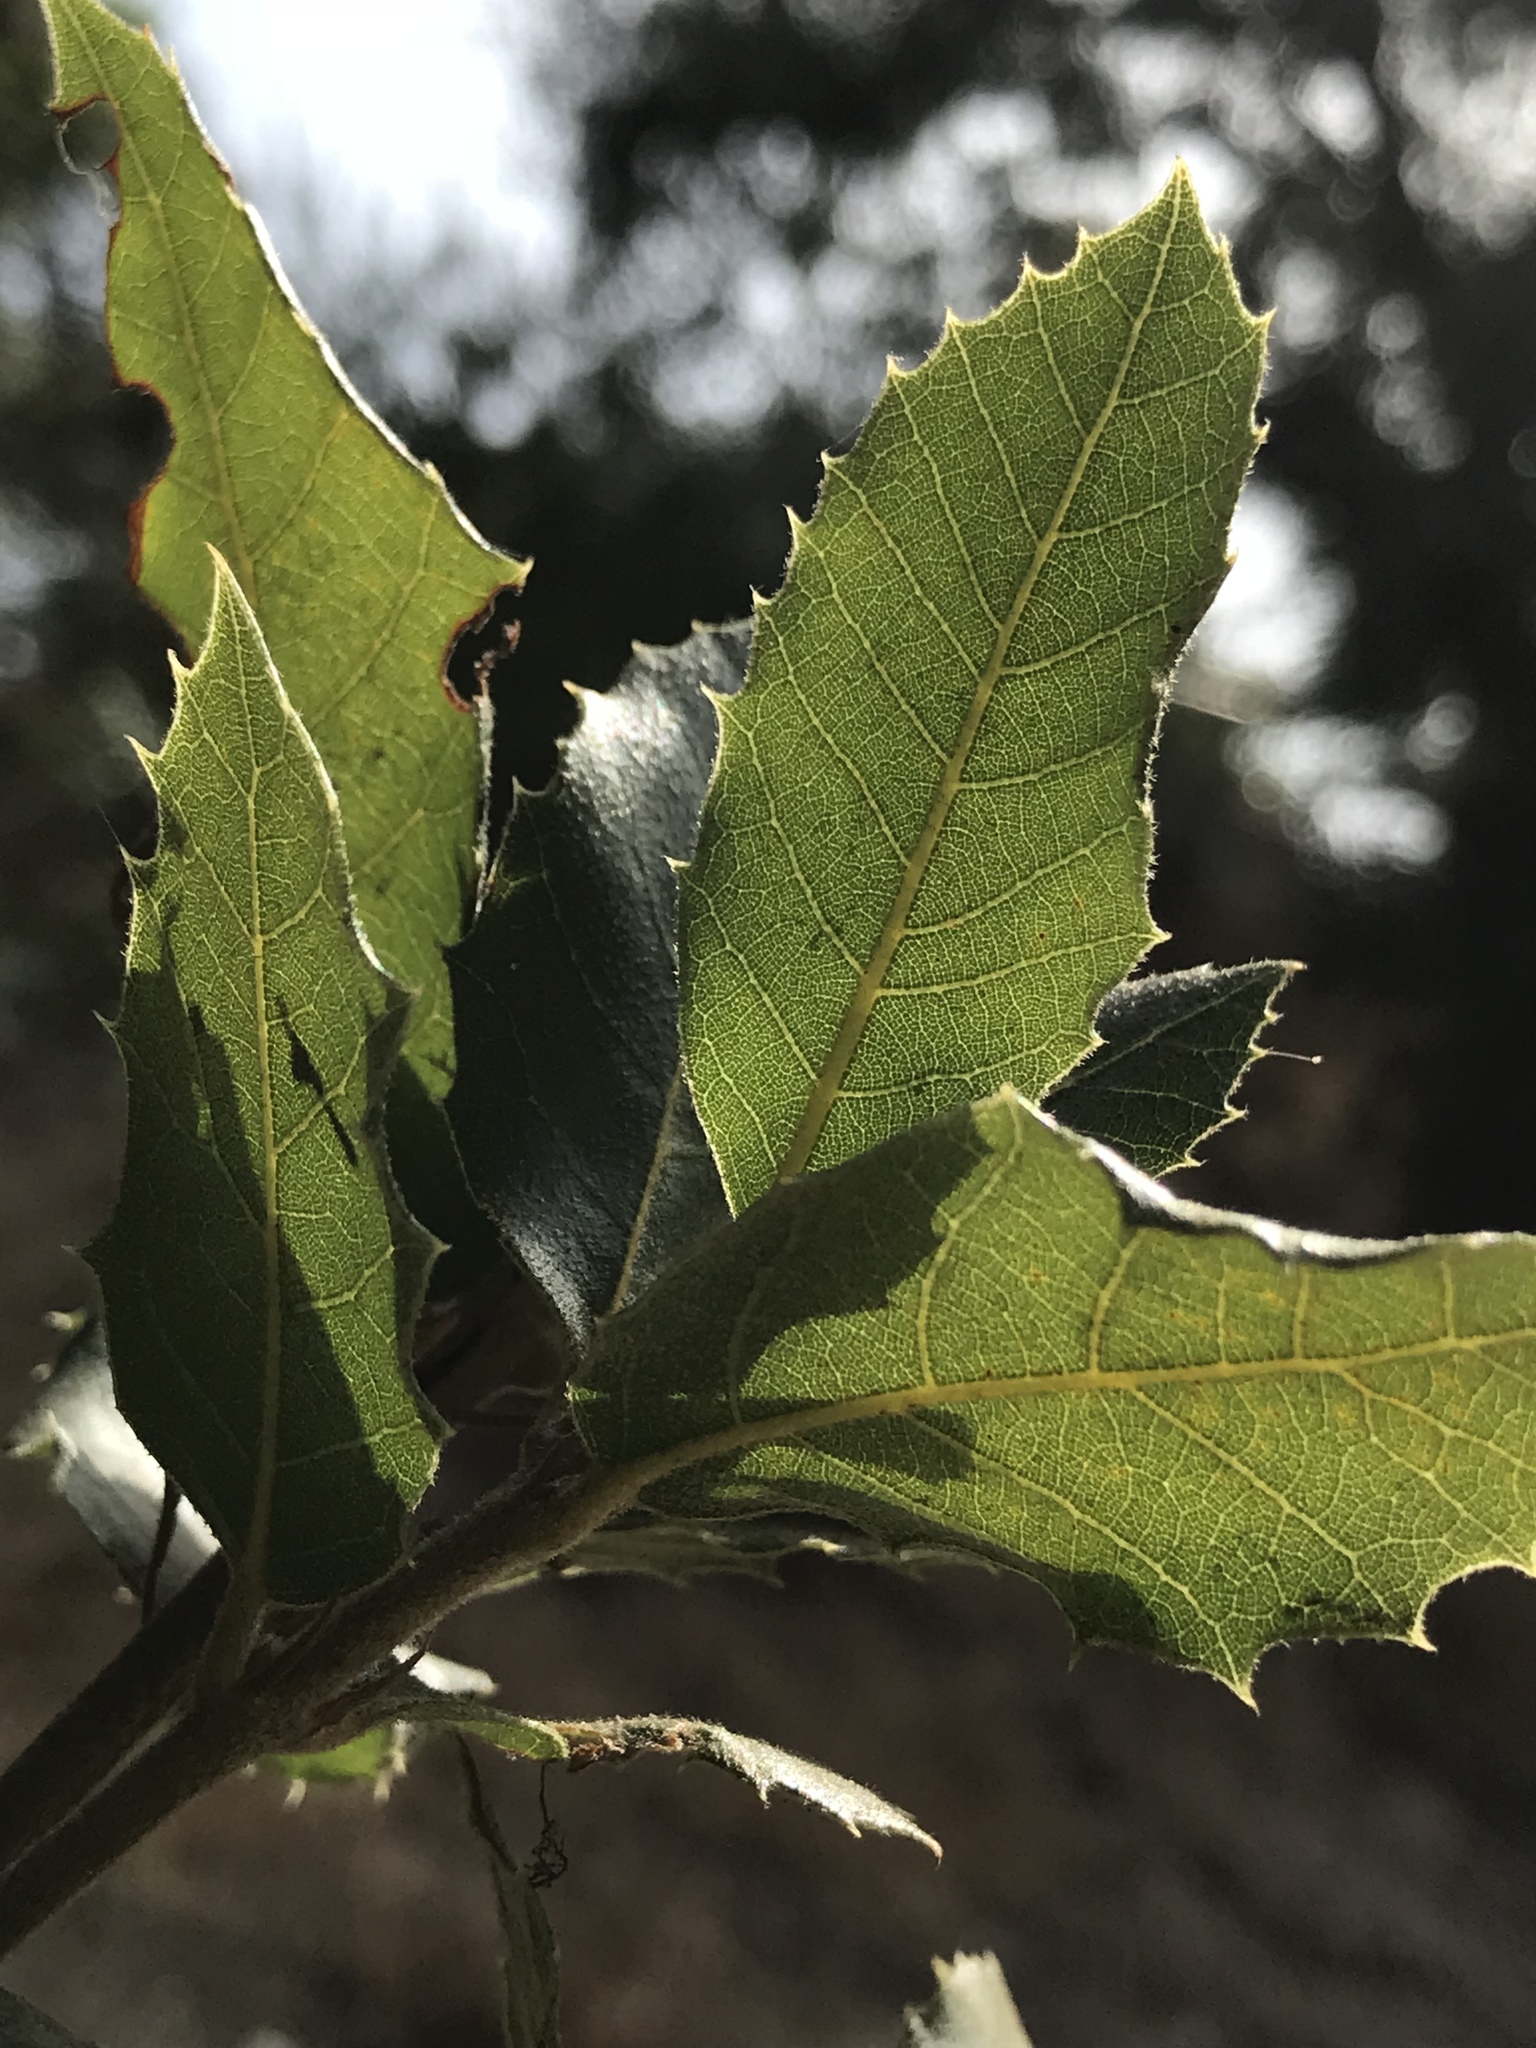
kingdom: Plantae
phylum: Tracheophyta
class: Magnoliopsida
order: Fagales
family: Fagaceae
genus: Quercus
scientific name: Quercus chrysolepis
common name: Canyon live oak
